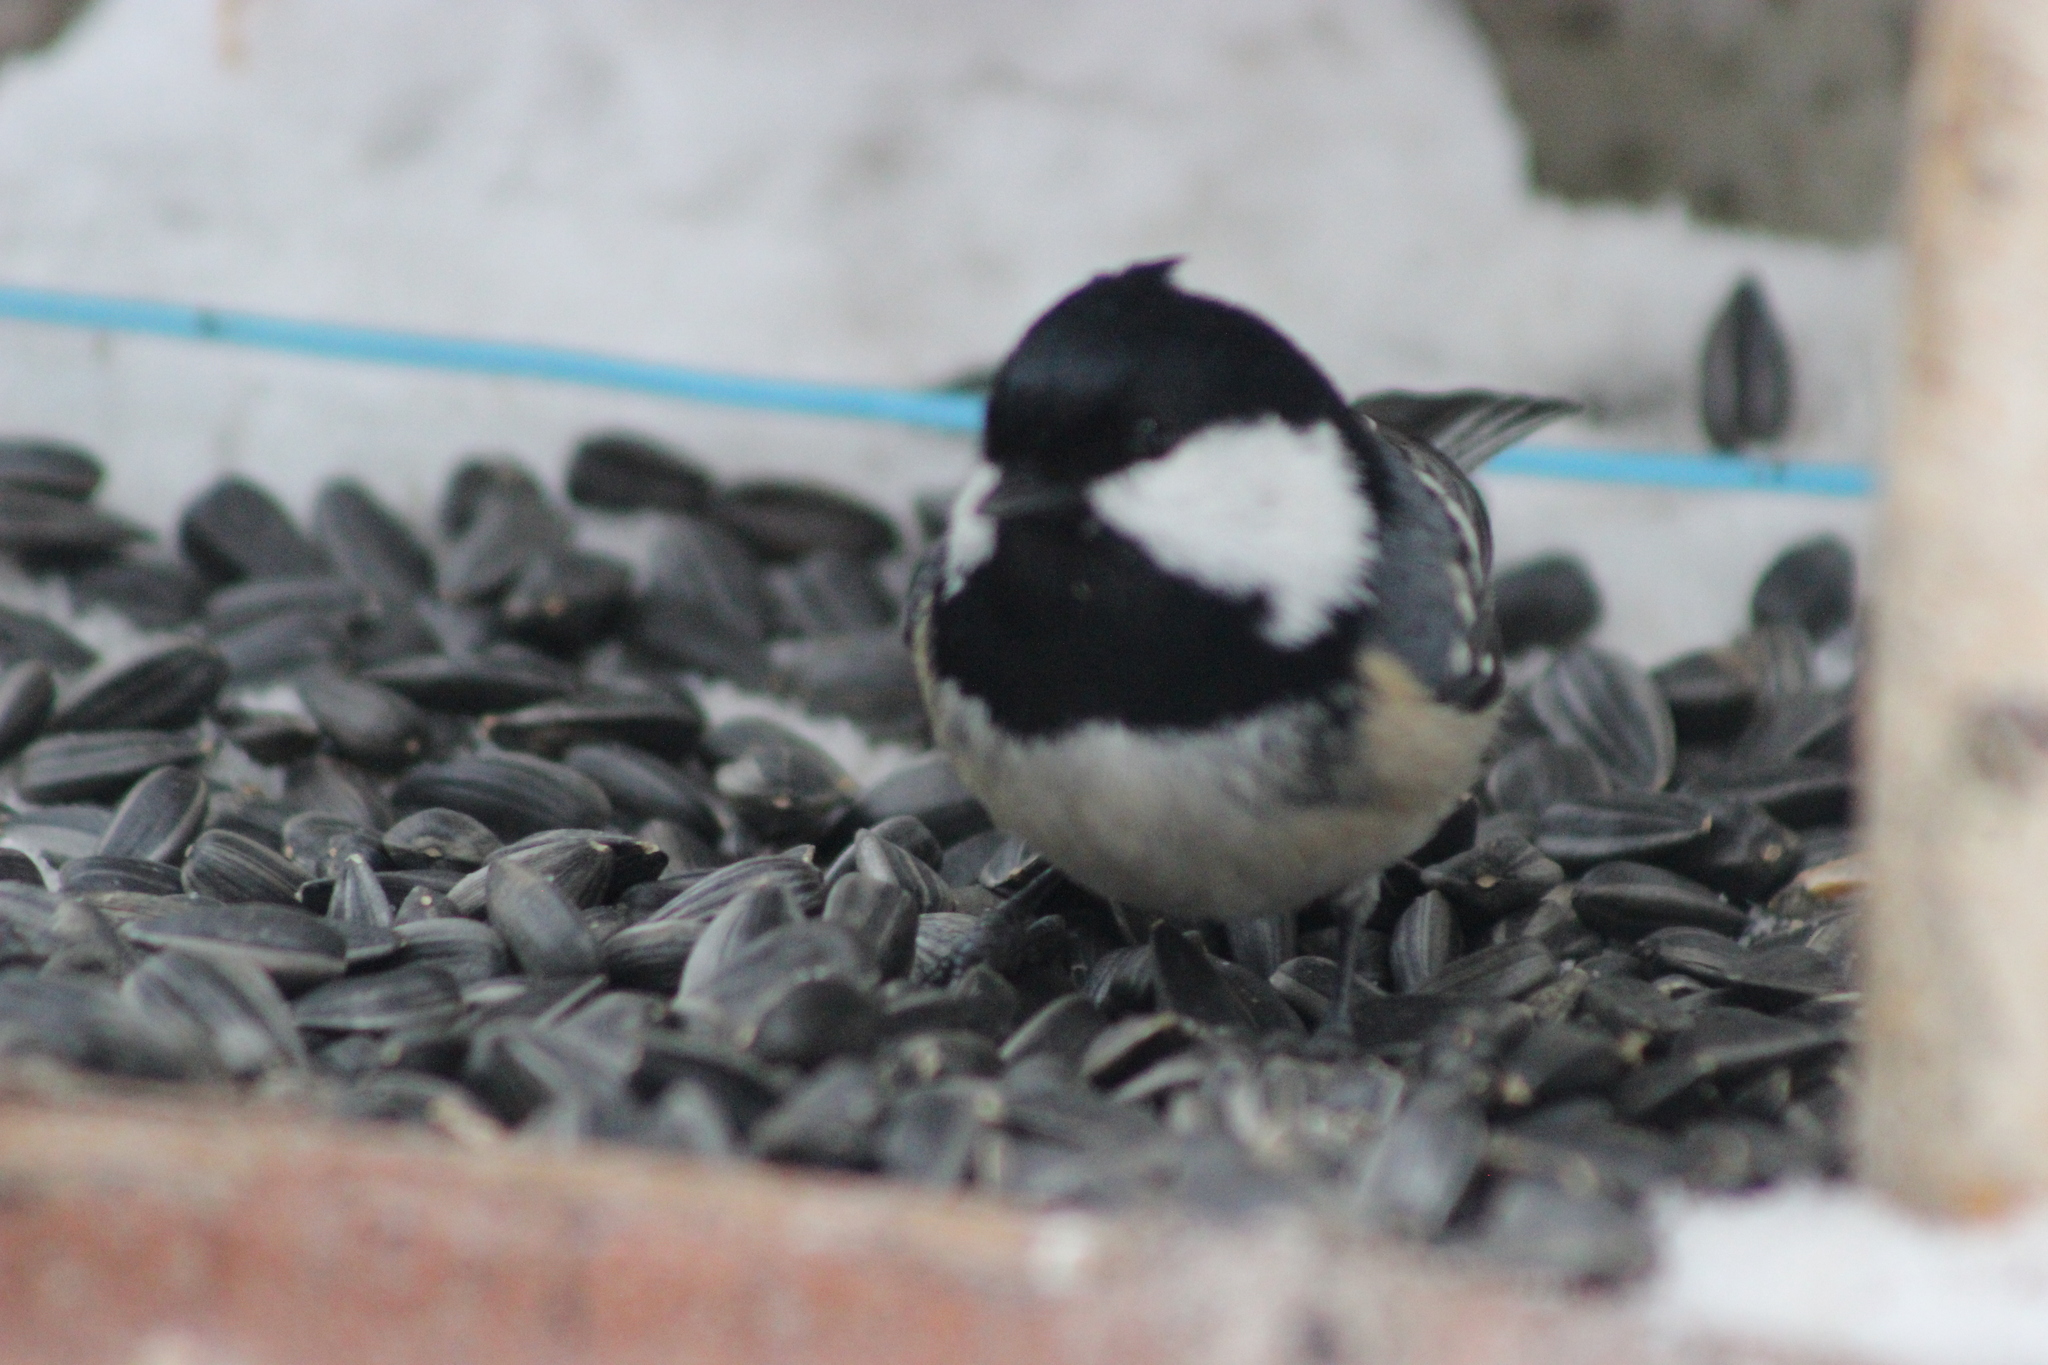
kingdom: Animalia
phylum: Chordata
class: Aves
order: Passeriformes
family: Paridae
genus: Periparus
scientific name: Periparus ater
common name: Coal tit
